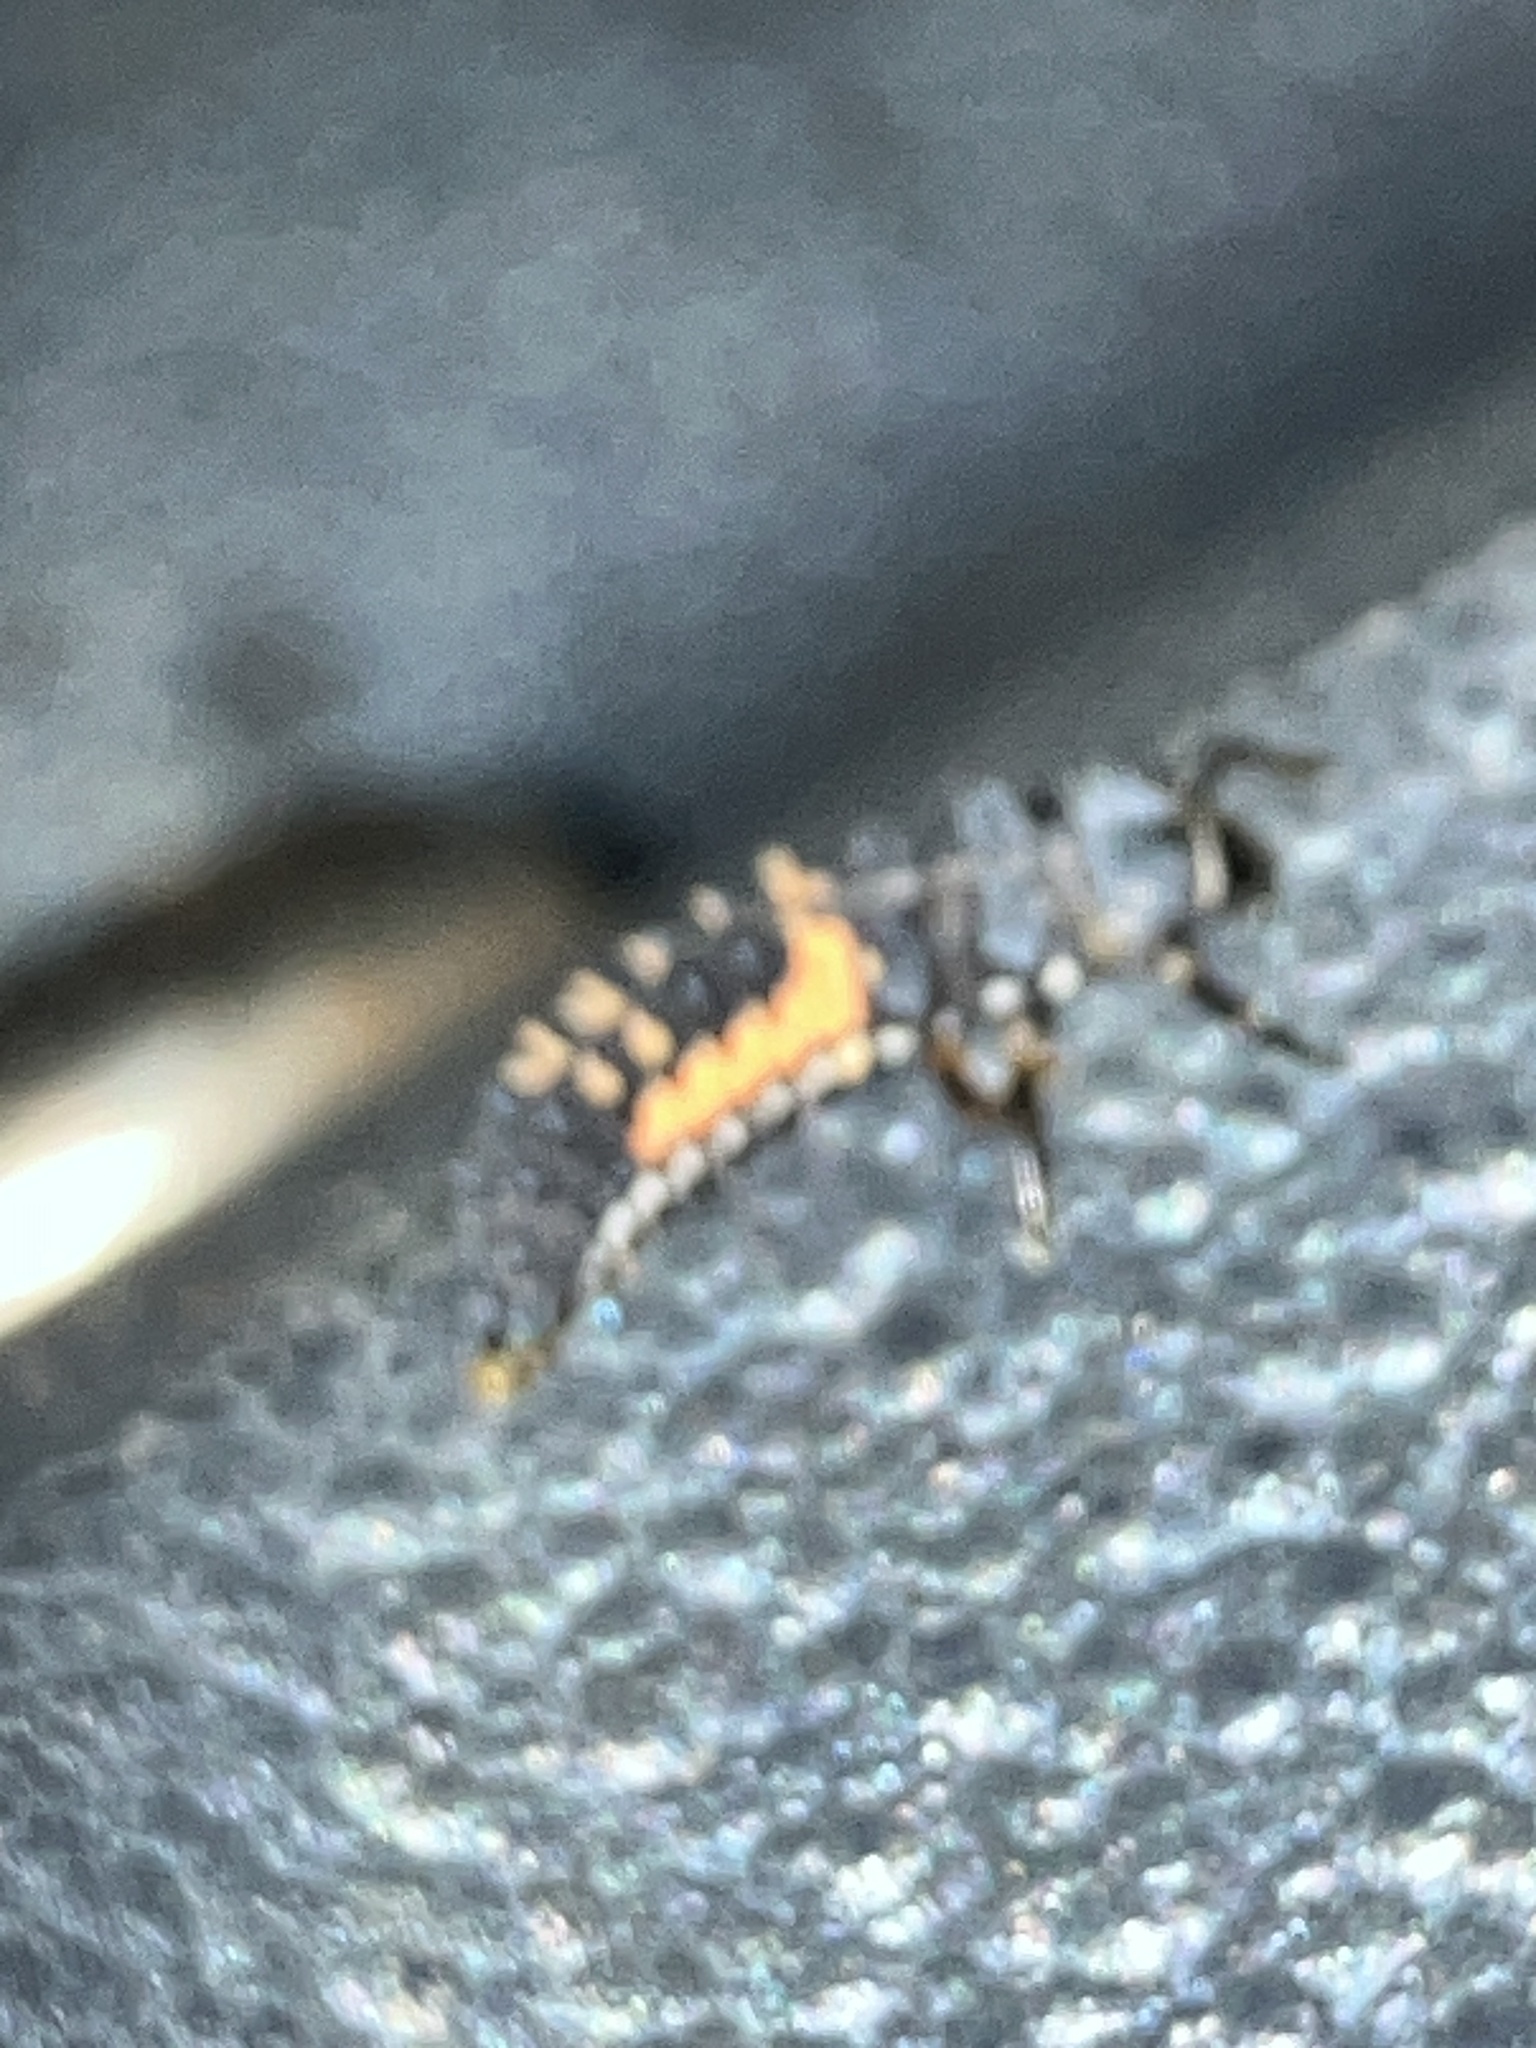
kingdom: Animalia
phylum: Arthropoda
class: Insecta
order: Coleoptera
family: Coccinellidae
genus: Harmonia
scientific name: Harmonia axyridis
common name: Harlequin ladybird
